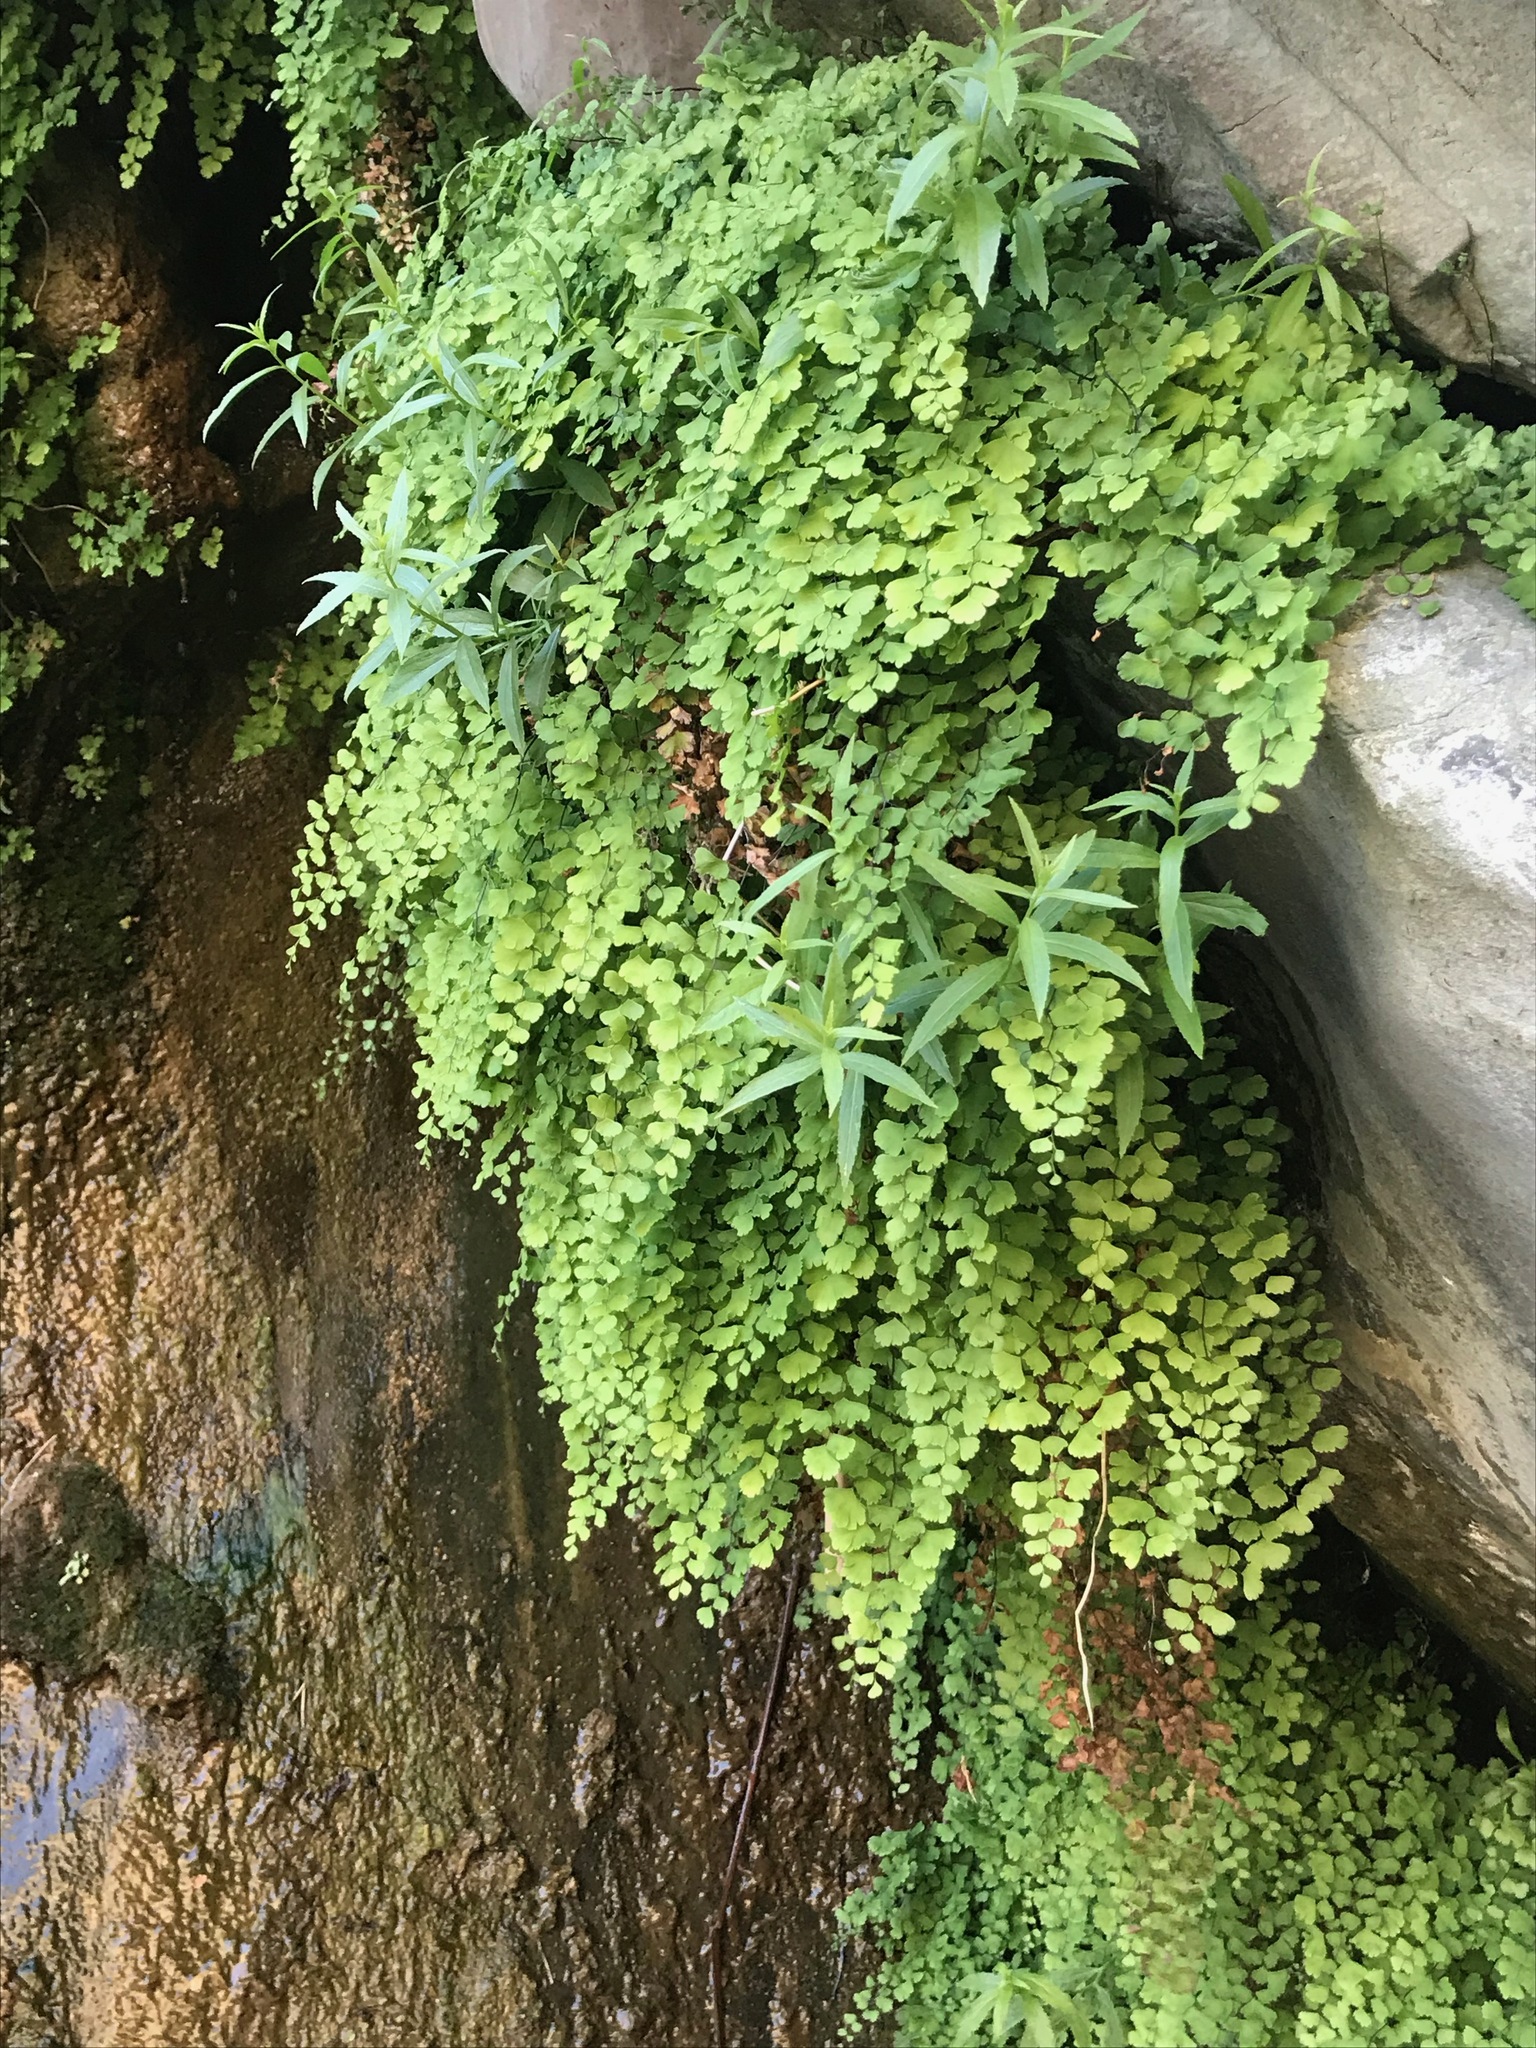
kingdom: Plantae
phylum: Tracheophyta
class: Polypodiopsida
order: Polypodiales
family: Pteridaceae
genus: Adiantum
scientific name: Adiantum capillus-veneris
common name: Maidenhair fern
